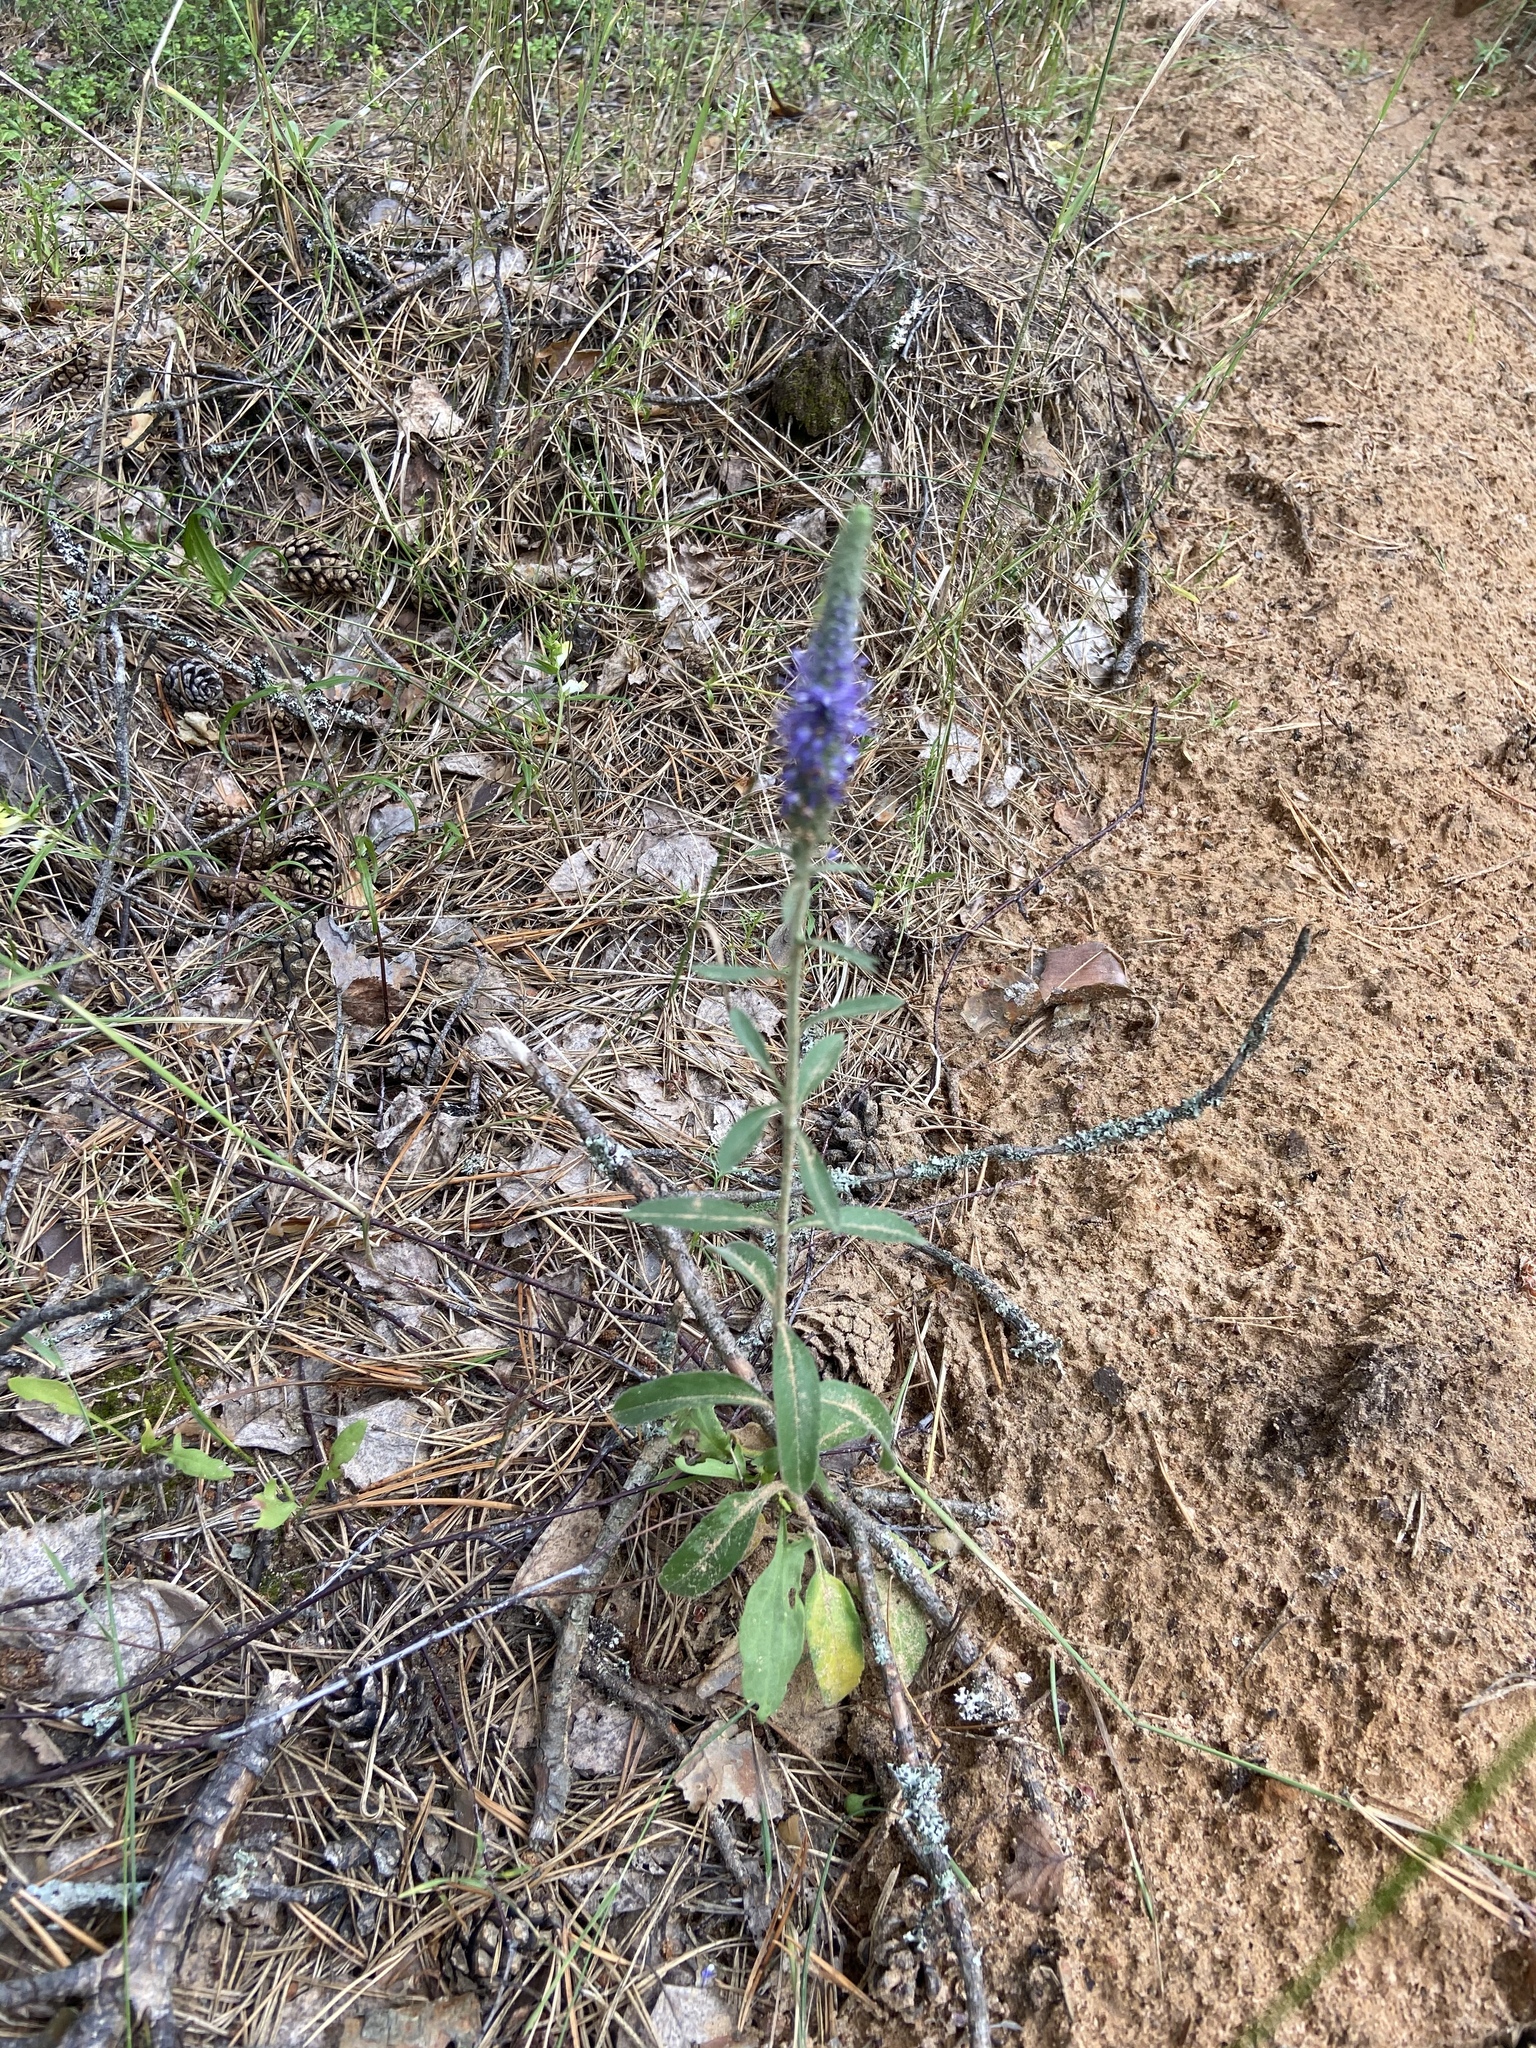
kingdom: Plantae
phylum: Tracheophyta
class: Magnoliopsida
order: Lamiales
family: Plantaginaceae
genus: Veronica
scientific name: Veronica spicata
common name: Spiked speedwell
